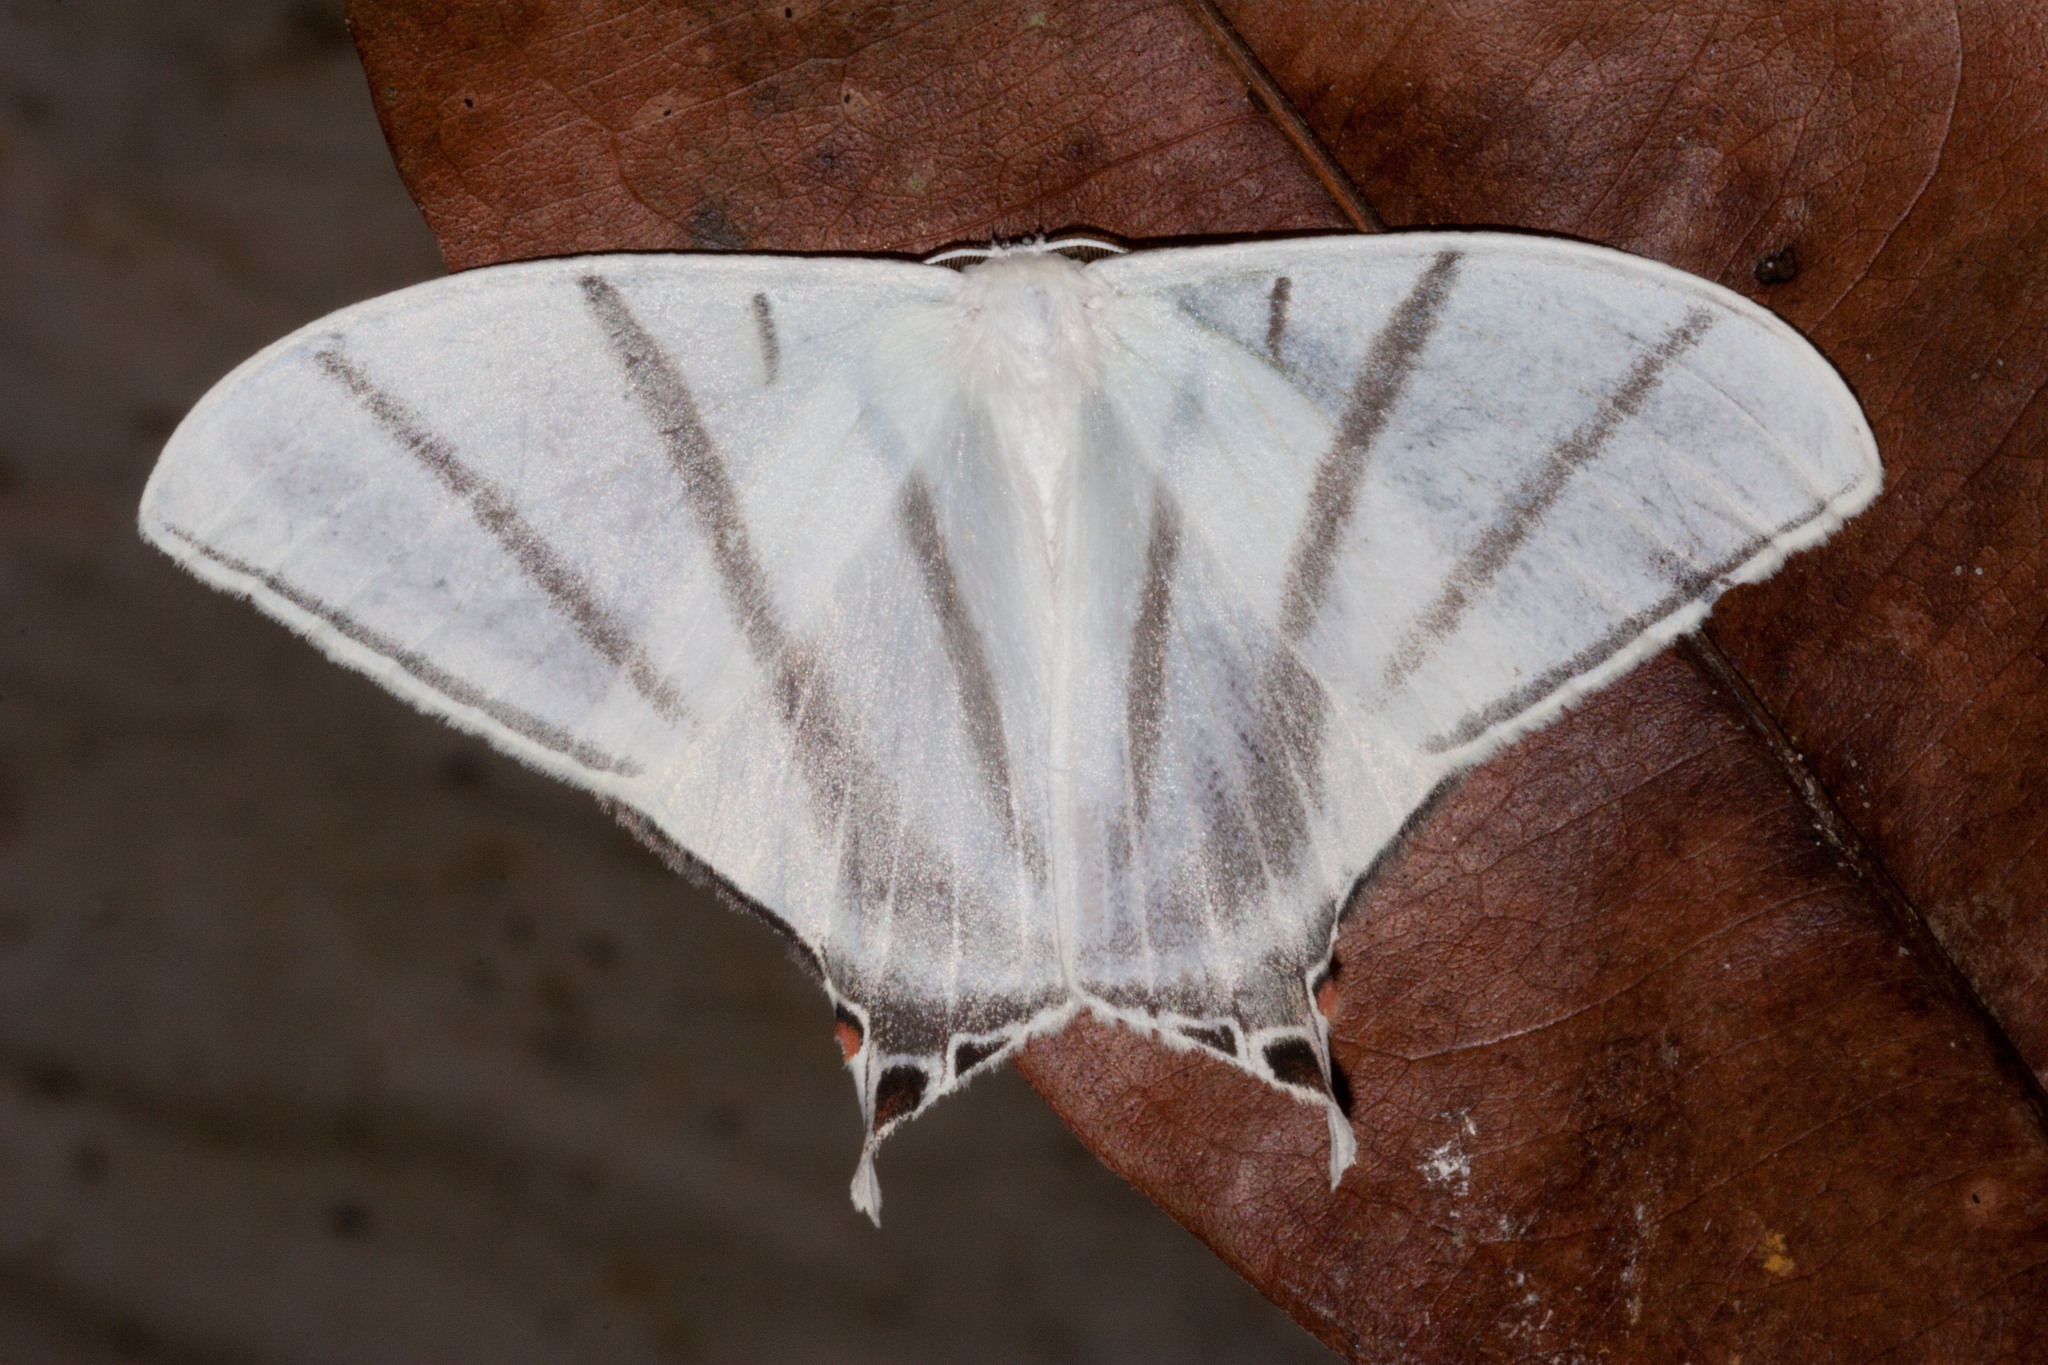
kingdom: Animalia
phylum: Arthropoda
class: Insecta
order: Lepidoptera
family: Saturniidae
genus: Therinia
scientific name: Therinia transversaria
